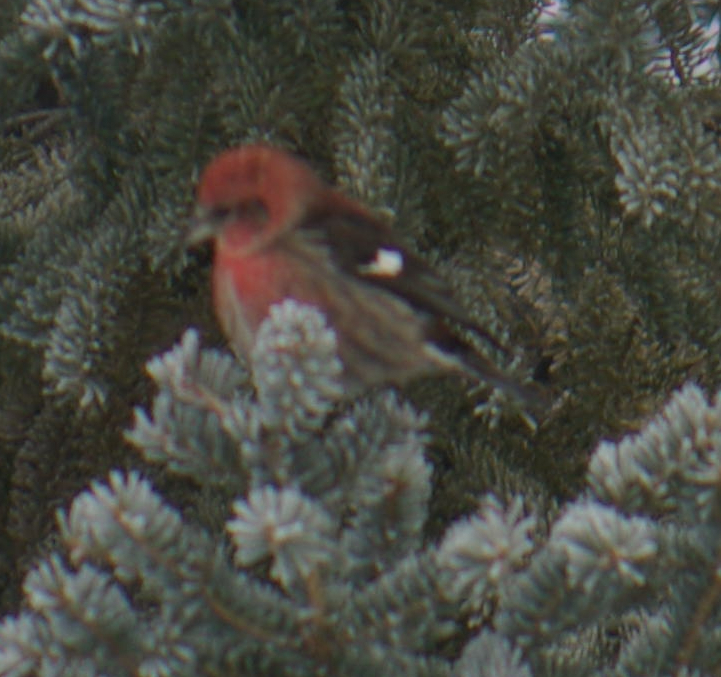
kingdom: Animalia
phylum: Chordata
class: Aves
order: Passeriformes
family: Fringillidae
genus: Loxia
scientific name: Loxia leucoptera
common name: Two-barred crossbill
